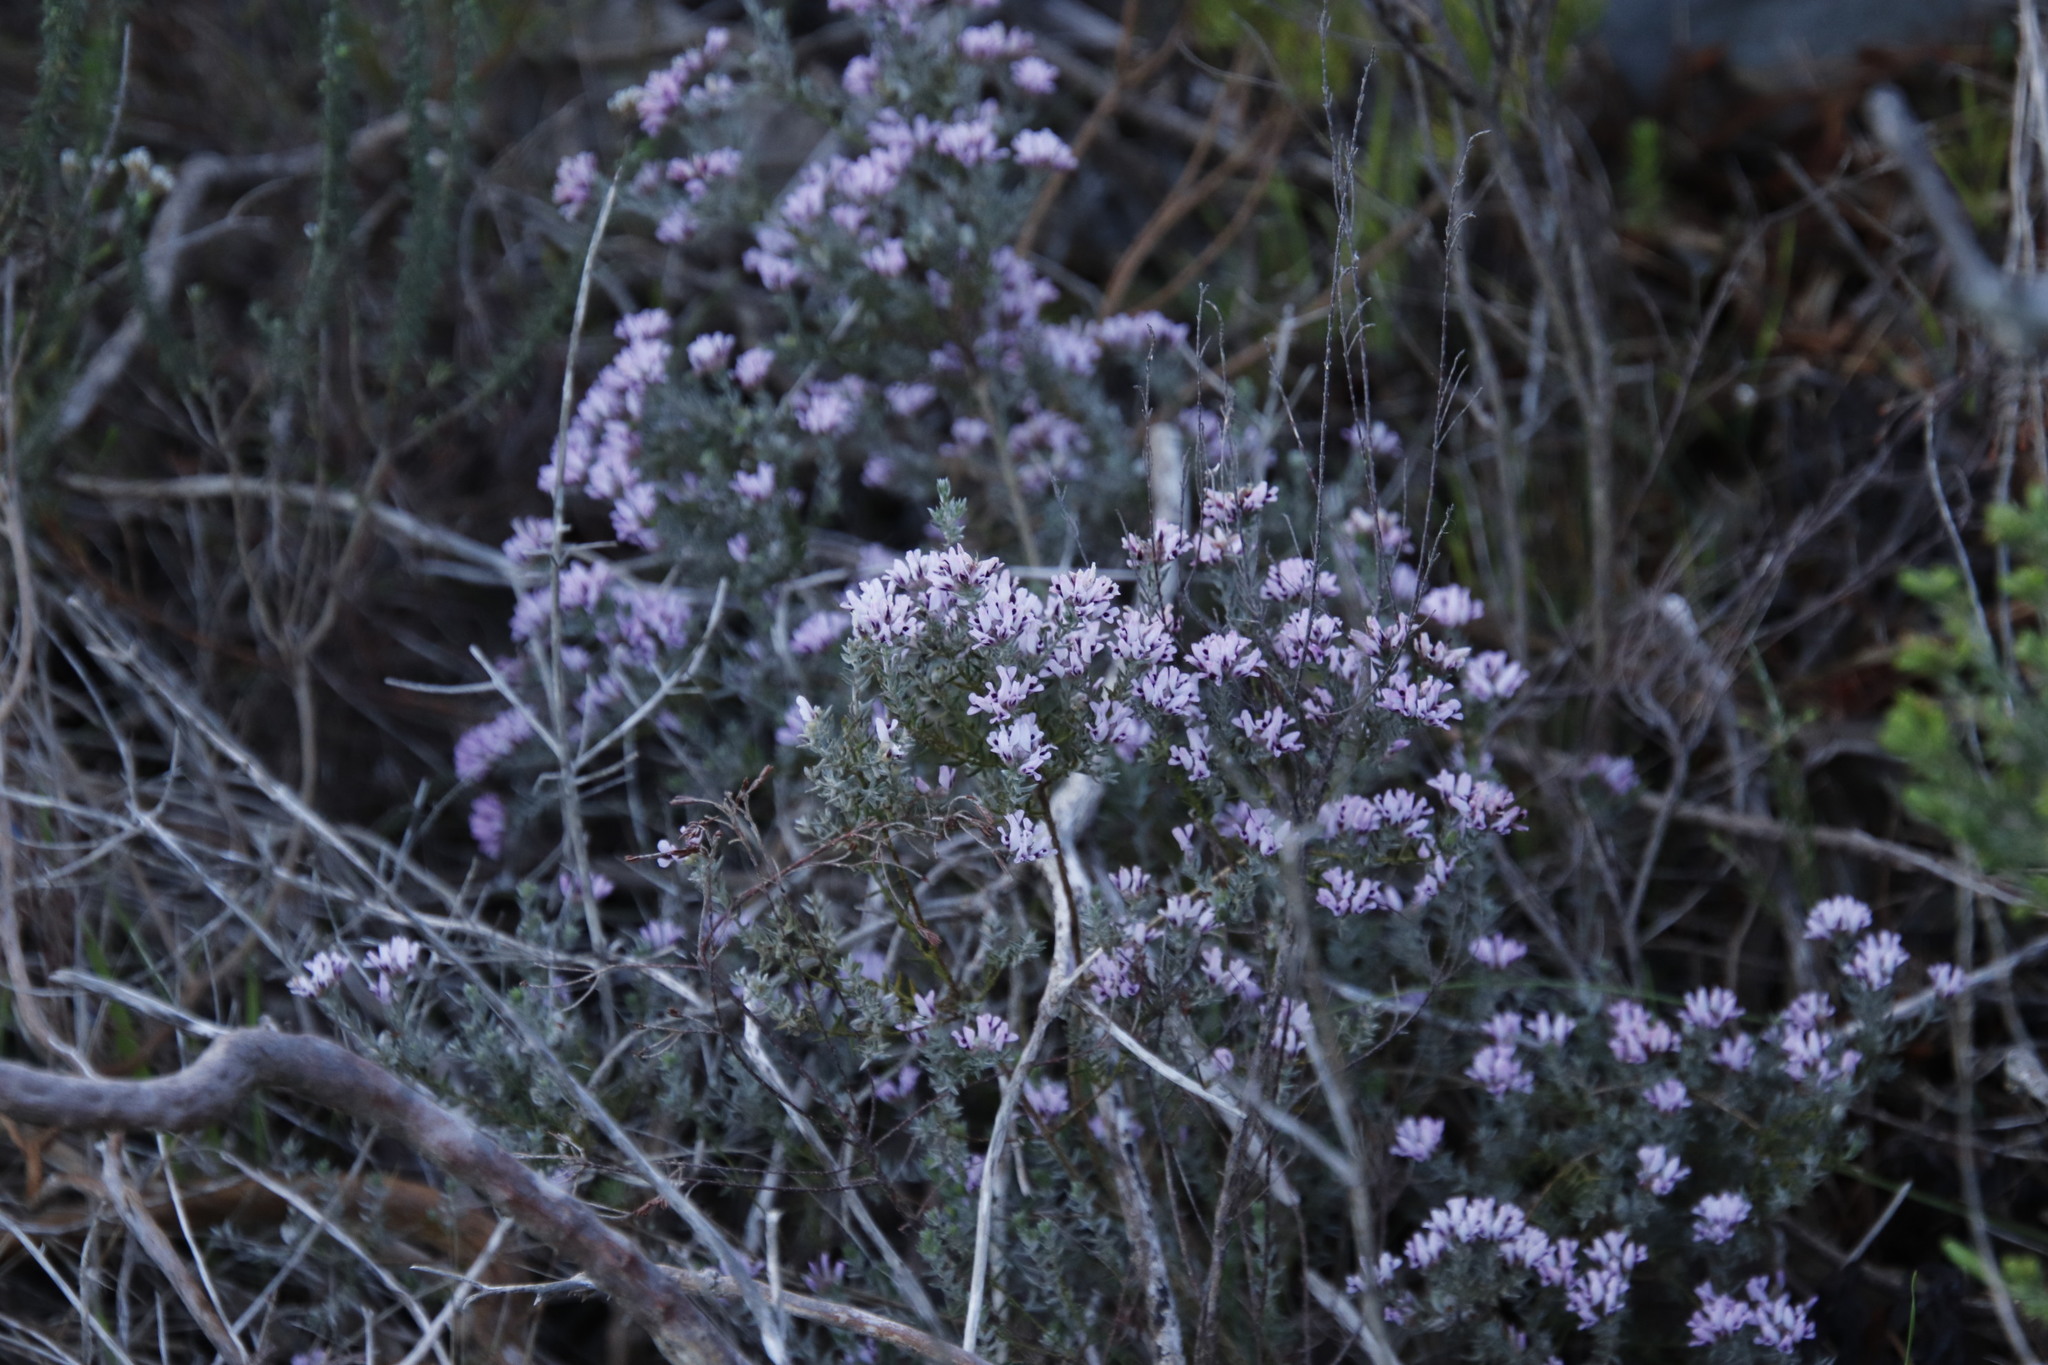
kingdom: Plantae
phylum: Tracheophyta
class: Magnoliopsida
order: Fabales
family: Fabaceae
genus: Amphithalea
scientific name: Amphithalea ericifolia
